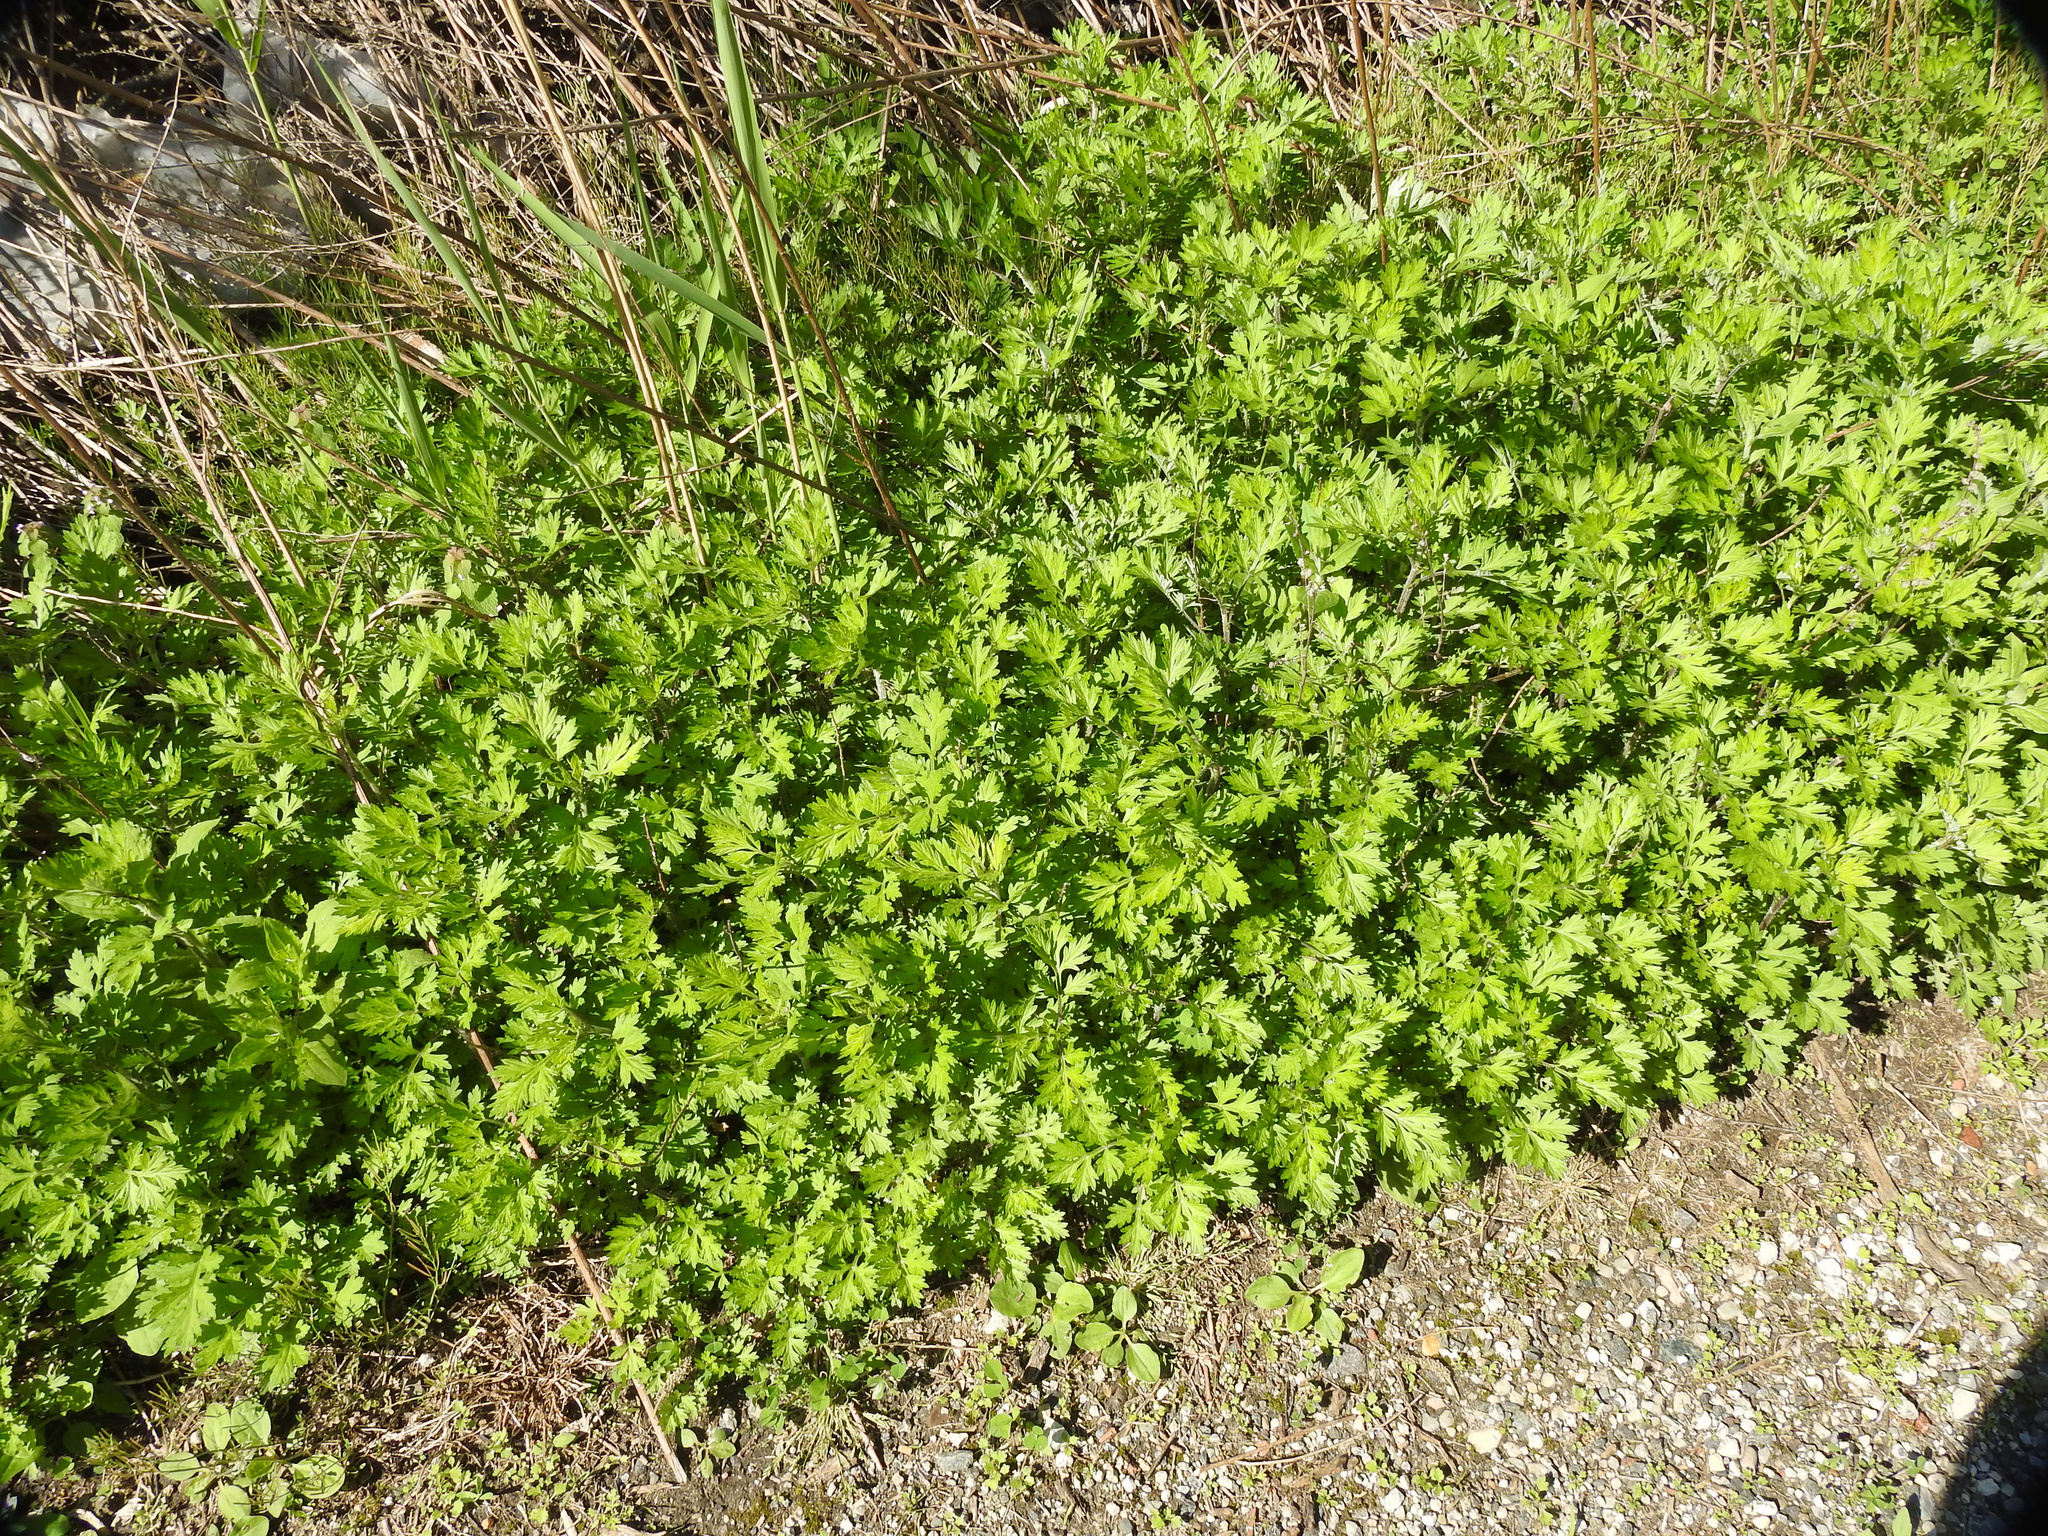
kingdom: Plantae
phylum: Tracheophyta
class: Magnoliopsida
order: Asterales
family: Asteraceae
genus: Artemisia
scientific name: Artemisia vulgaris
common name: Mugwort
